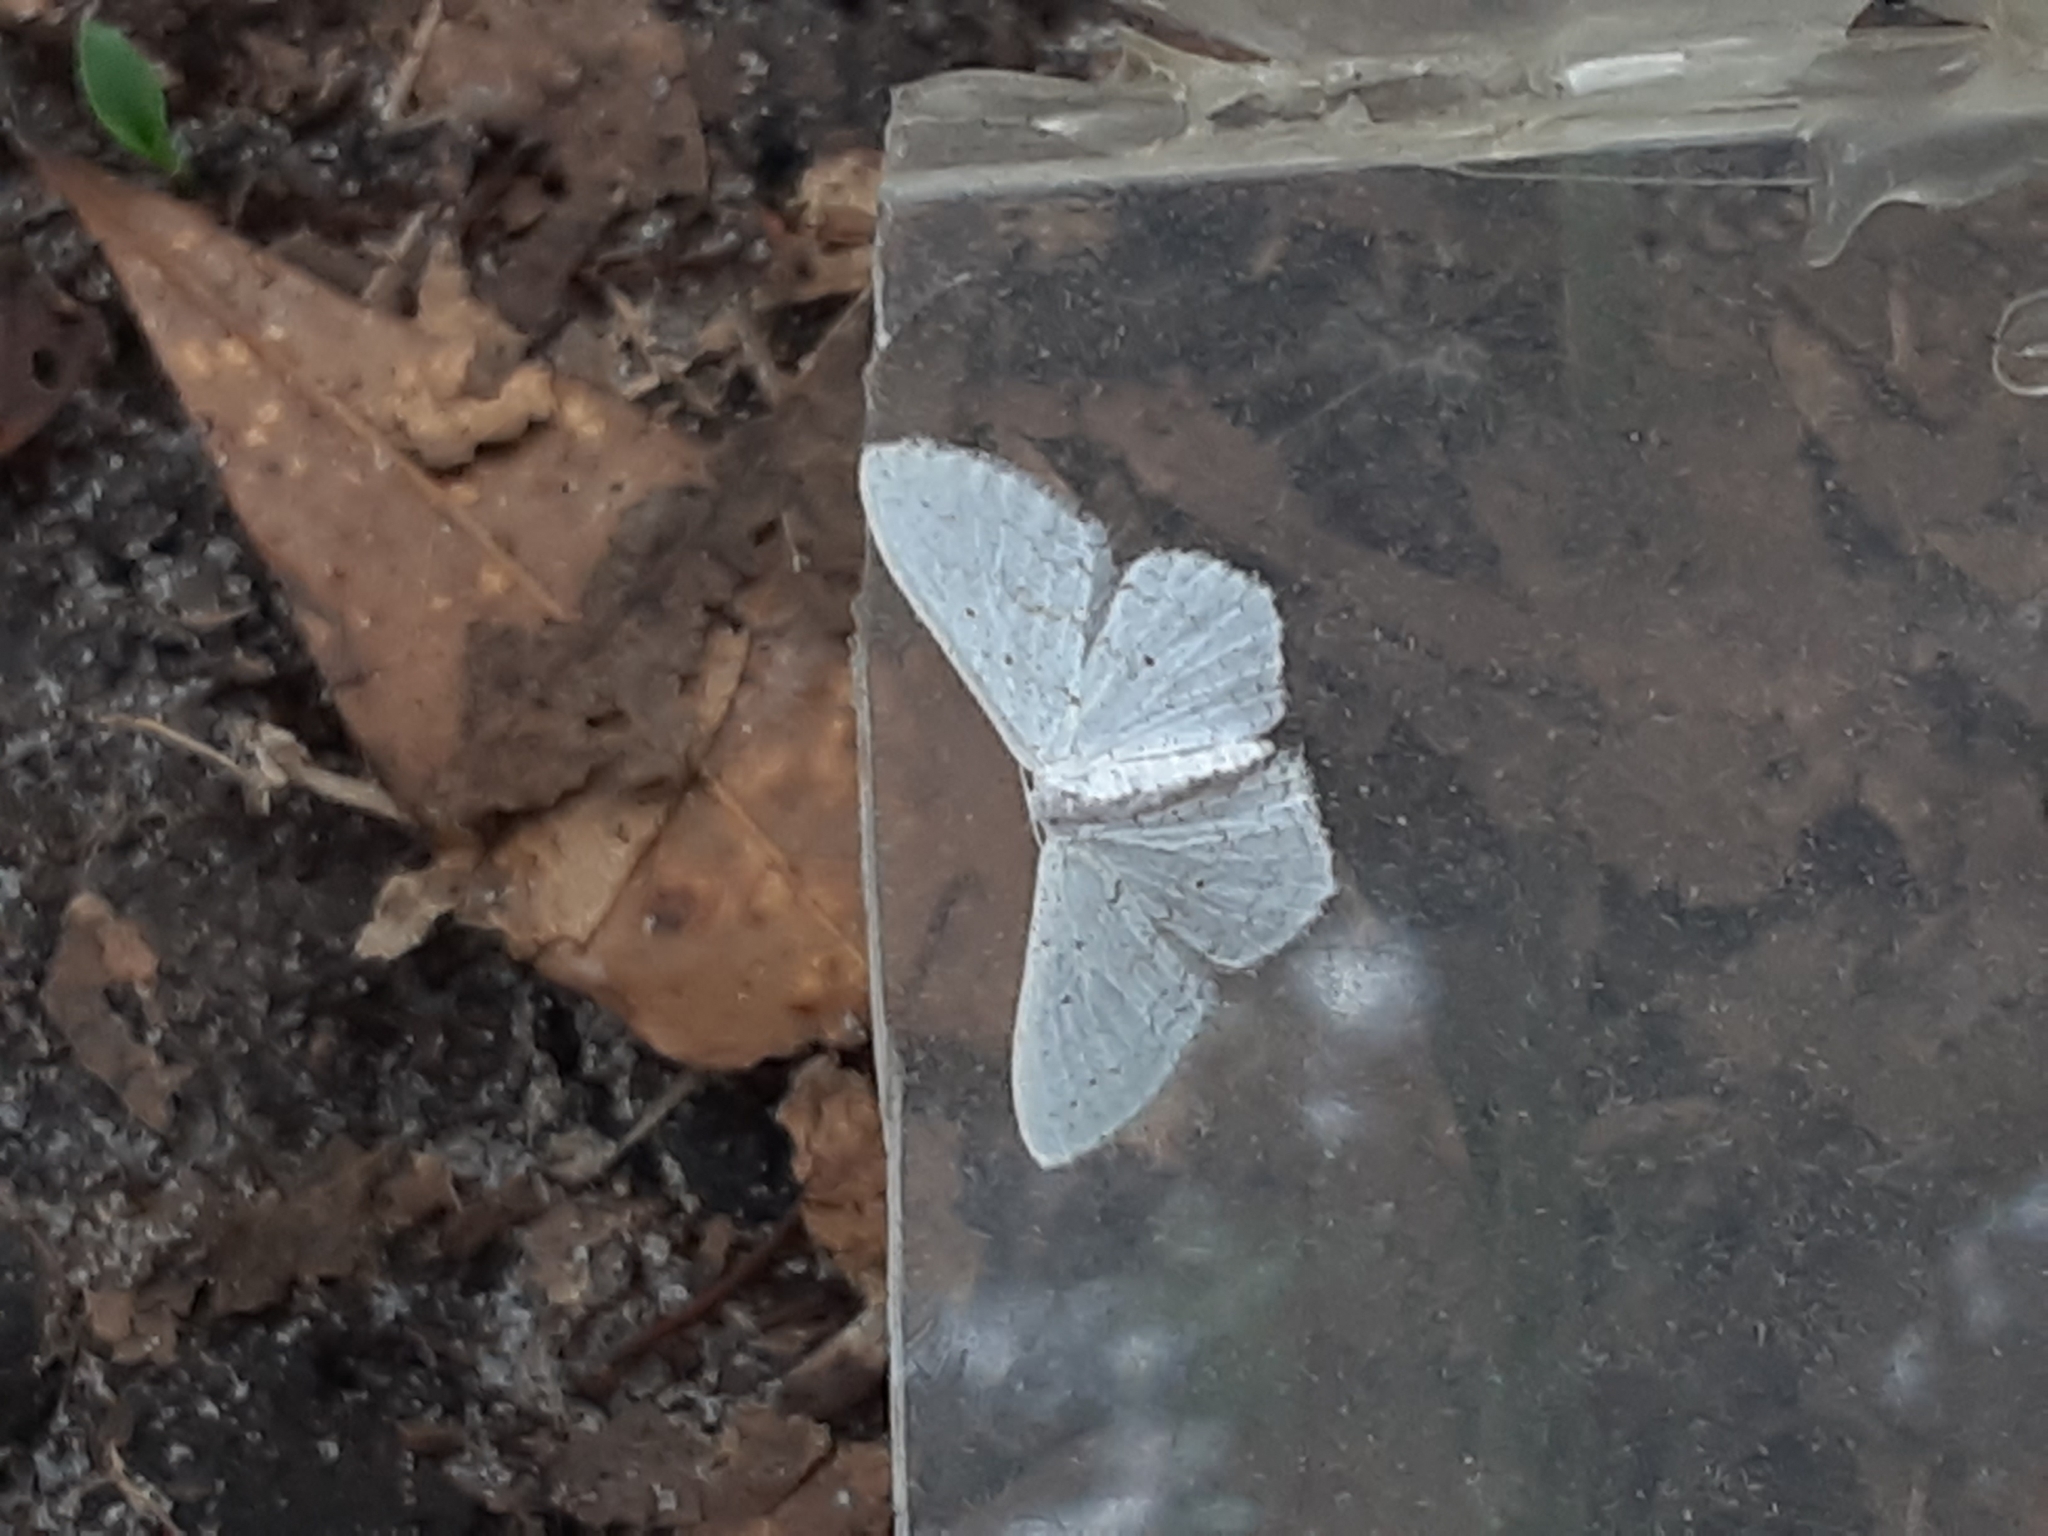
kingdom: Animalia
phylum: Arthropoda
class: Insecta
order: Lepidoptera
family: Geometridae
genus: Idaea
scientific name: Idaea tacturata
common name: Dot-lined wave
